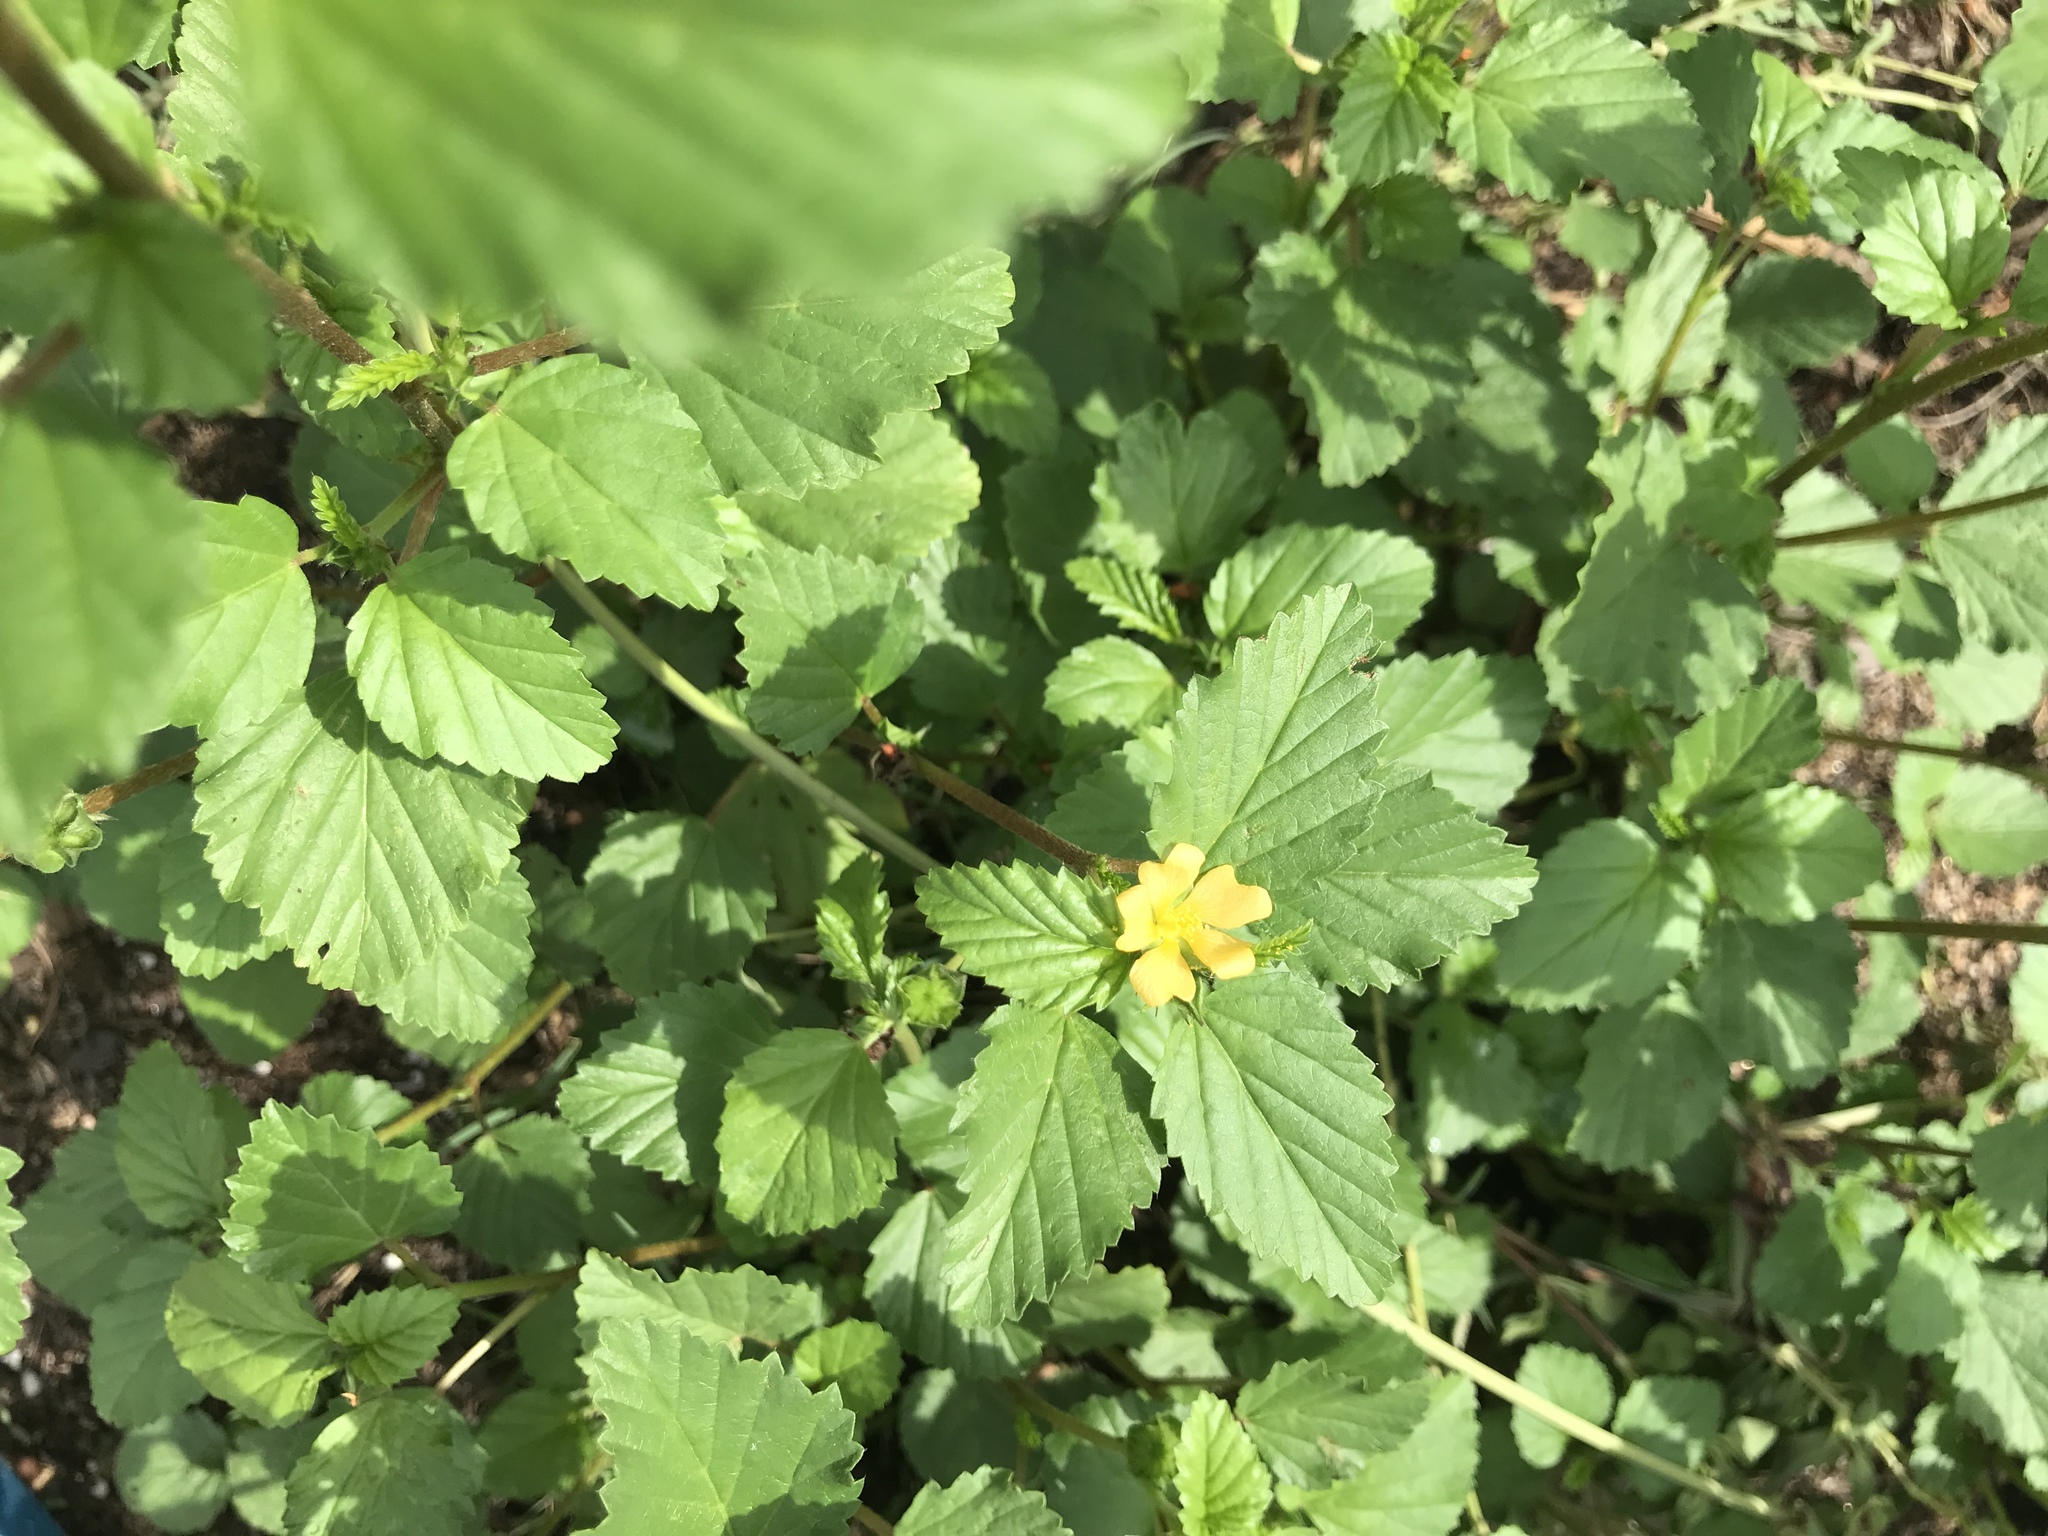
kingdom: Plantae
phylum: Tracheophyta
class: Magnoliopsida
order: Malvales
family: Malvaceae
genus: Malvastrum
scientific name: Malvastrum coromandelianum
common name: Threelobe false mallow
